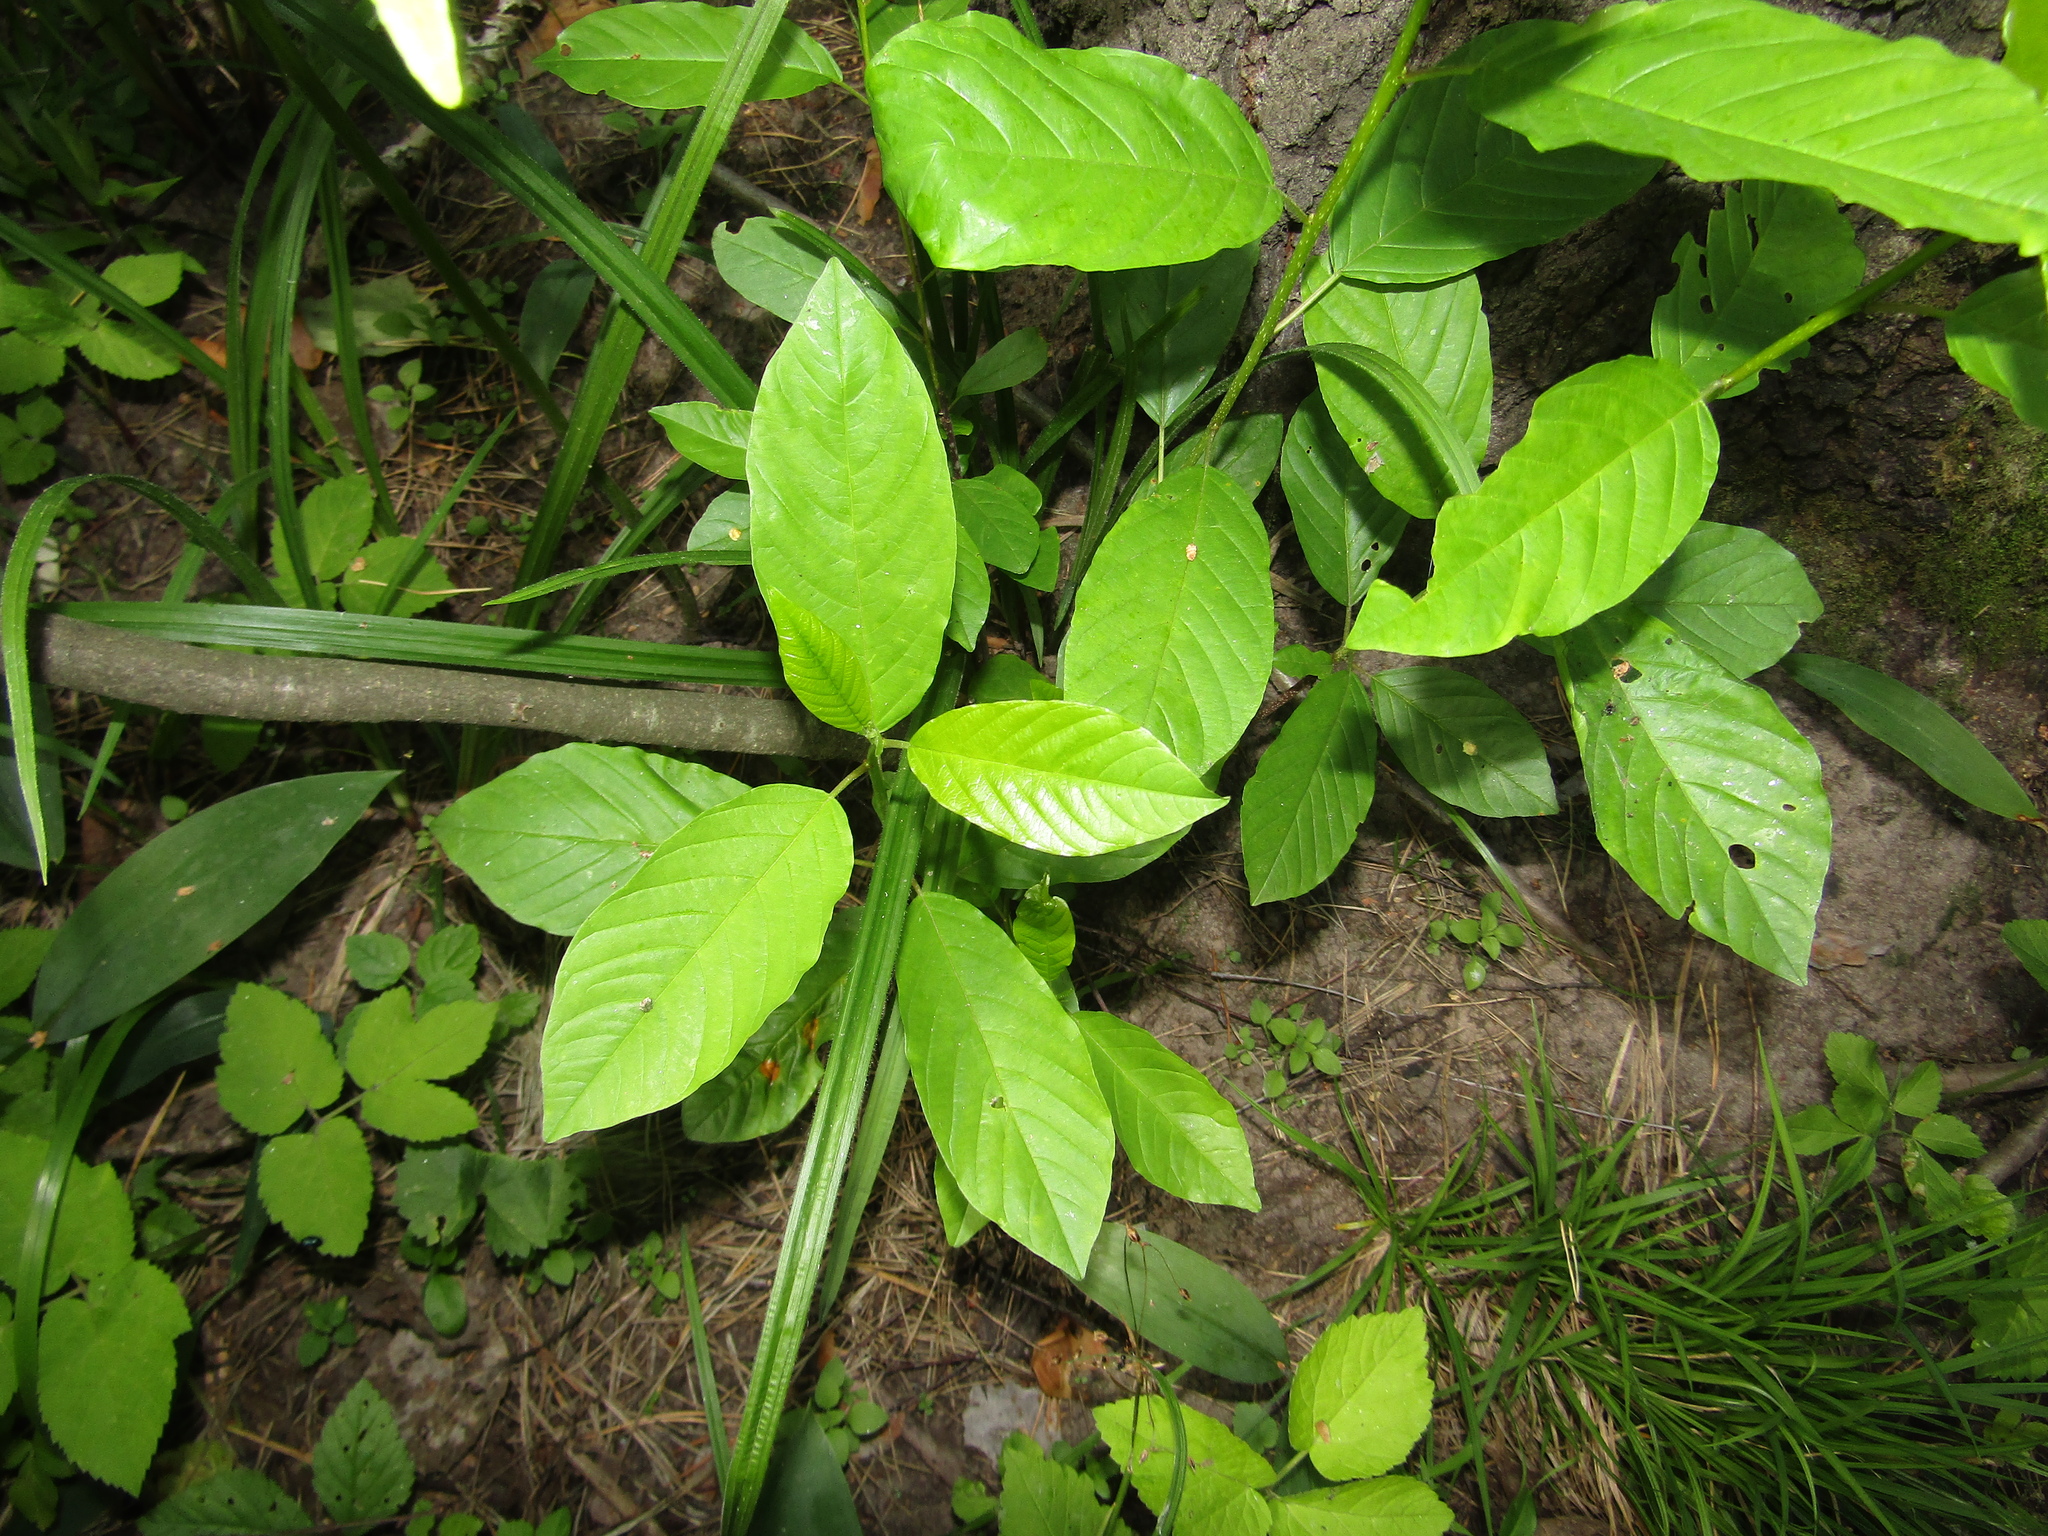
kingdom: Plantae
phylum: Tracheophyta
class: Magnoliopsida
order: Rosales
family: Rhamnaceae
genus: Frangula
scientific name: Frangula alnus
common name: Alder buckthorn
